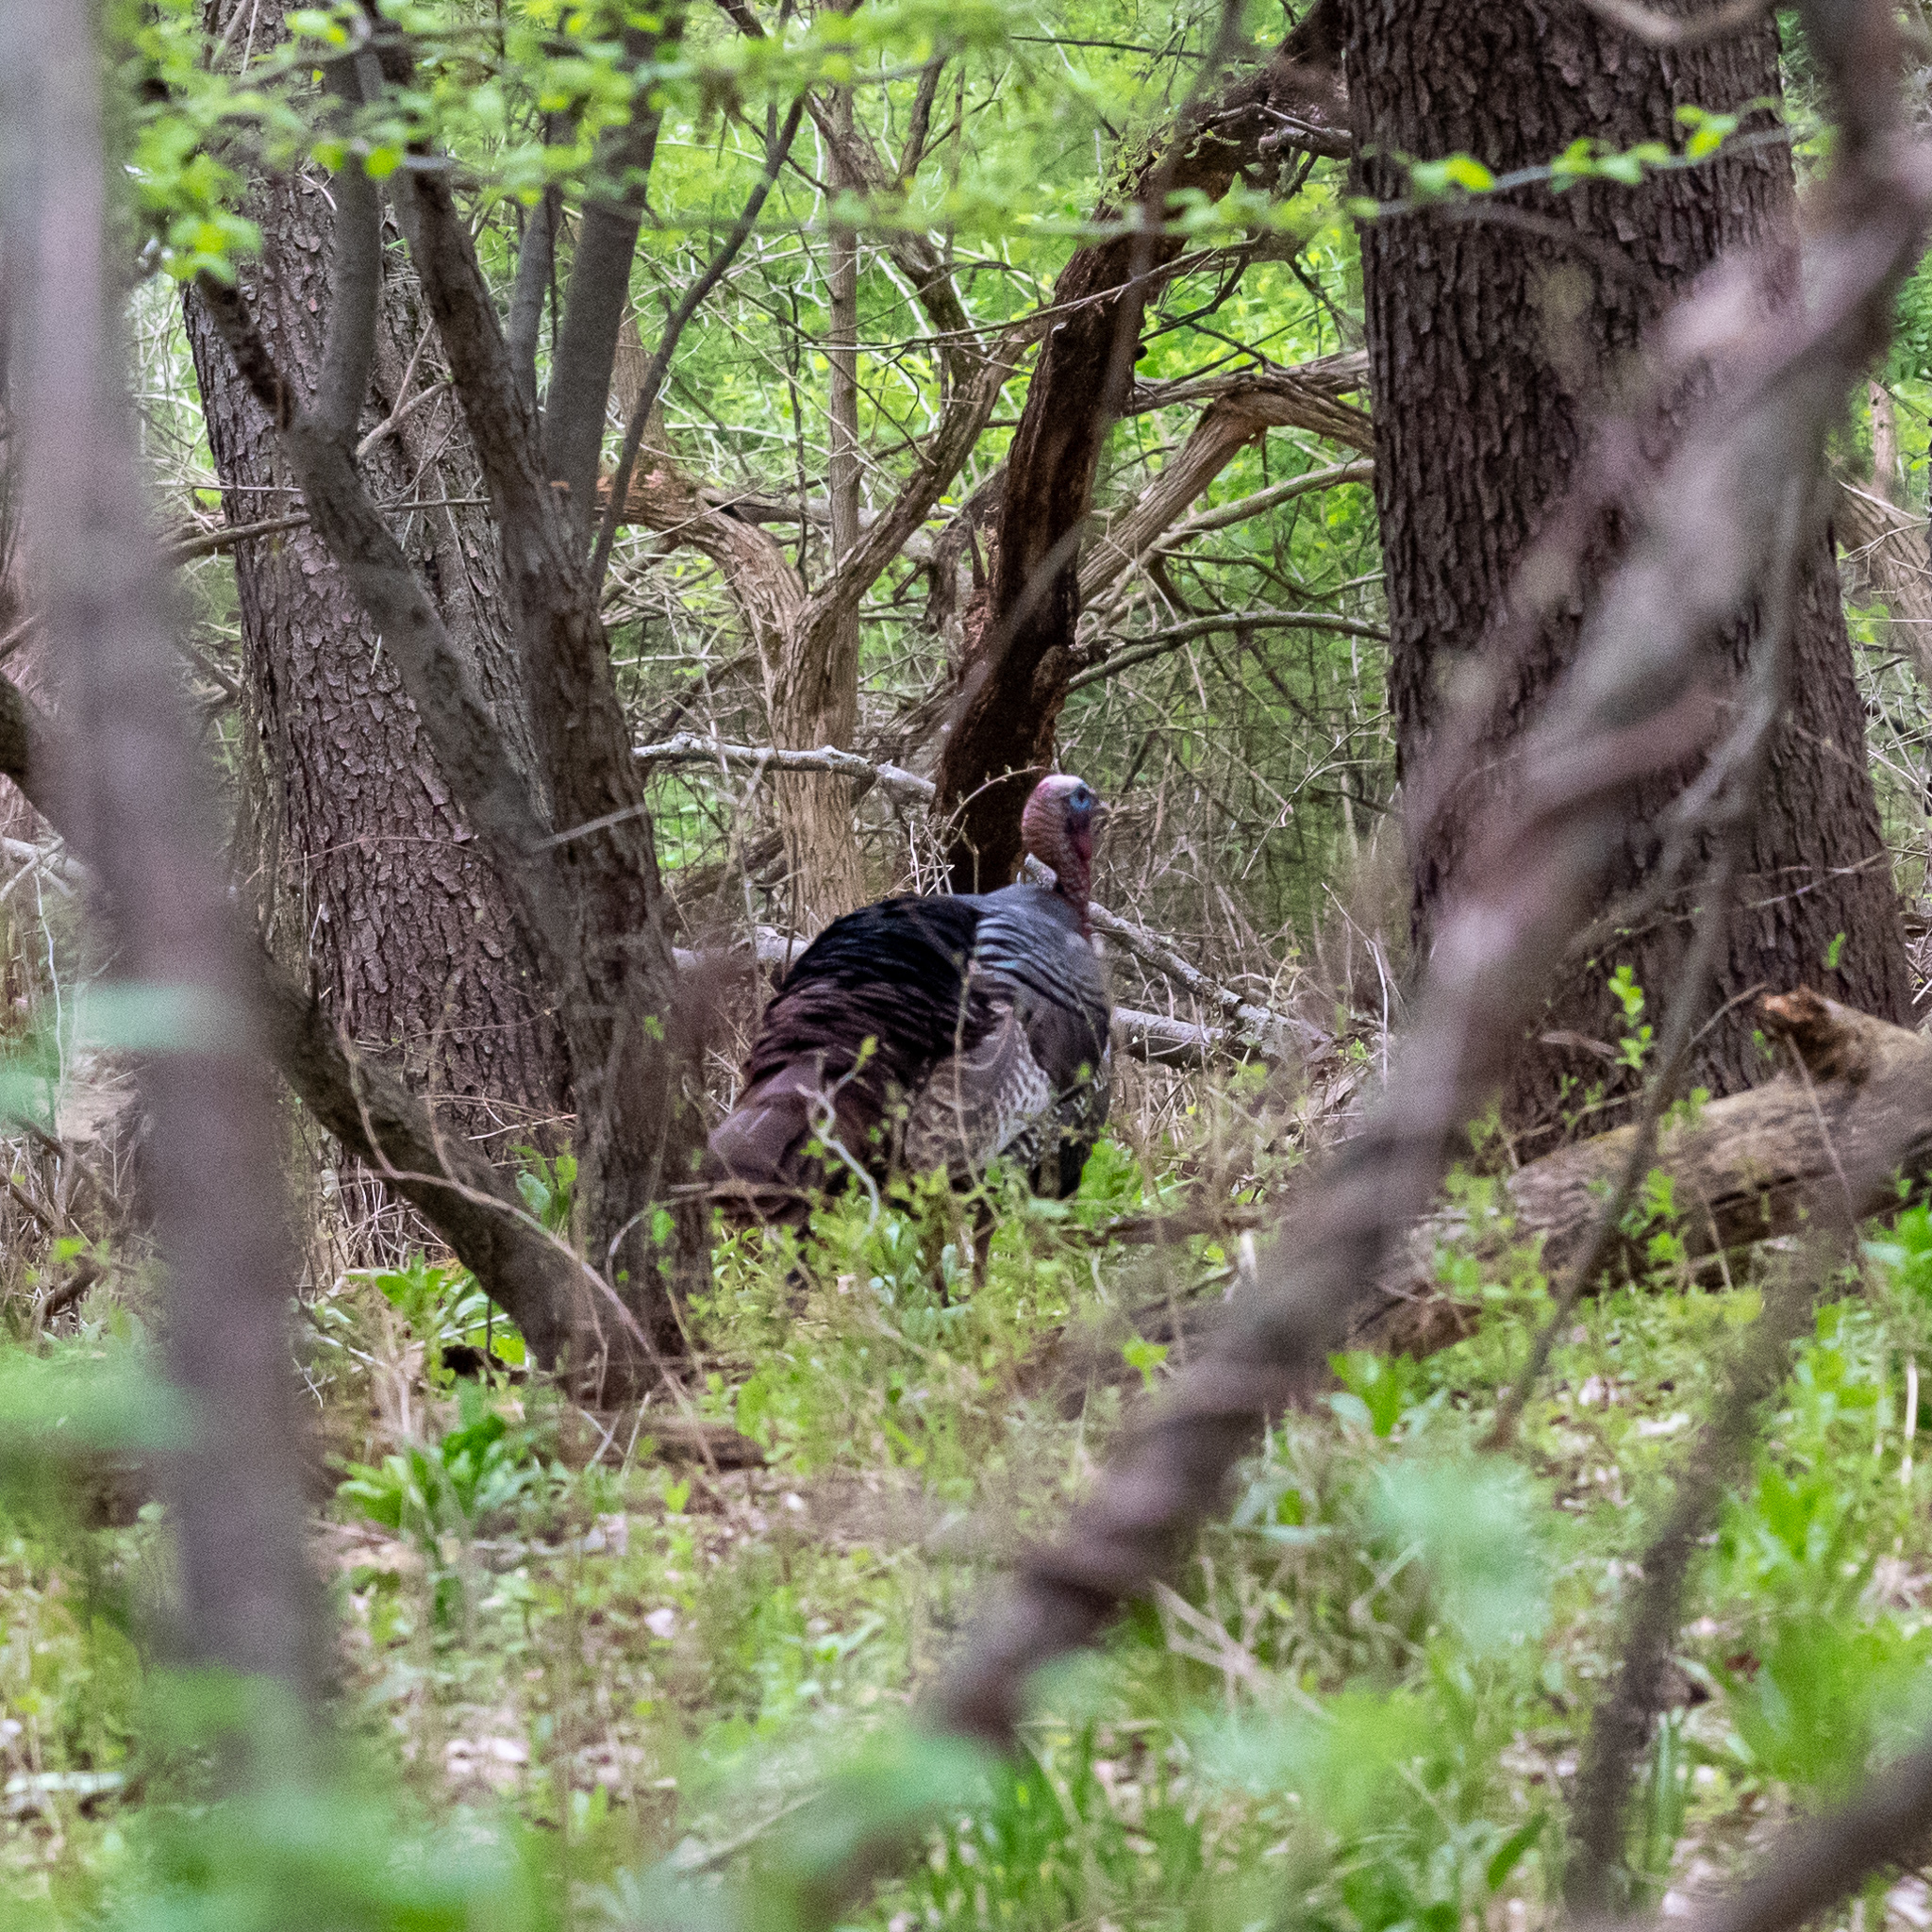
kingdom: Animalia
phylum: Chordata
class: Aves
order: Galliformes
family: Phasianidae
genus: Meleagris
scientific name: Meleagris gallopavo
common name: Wild turkey
